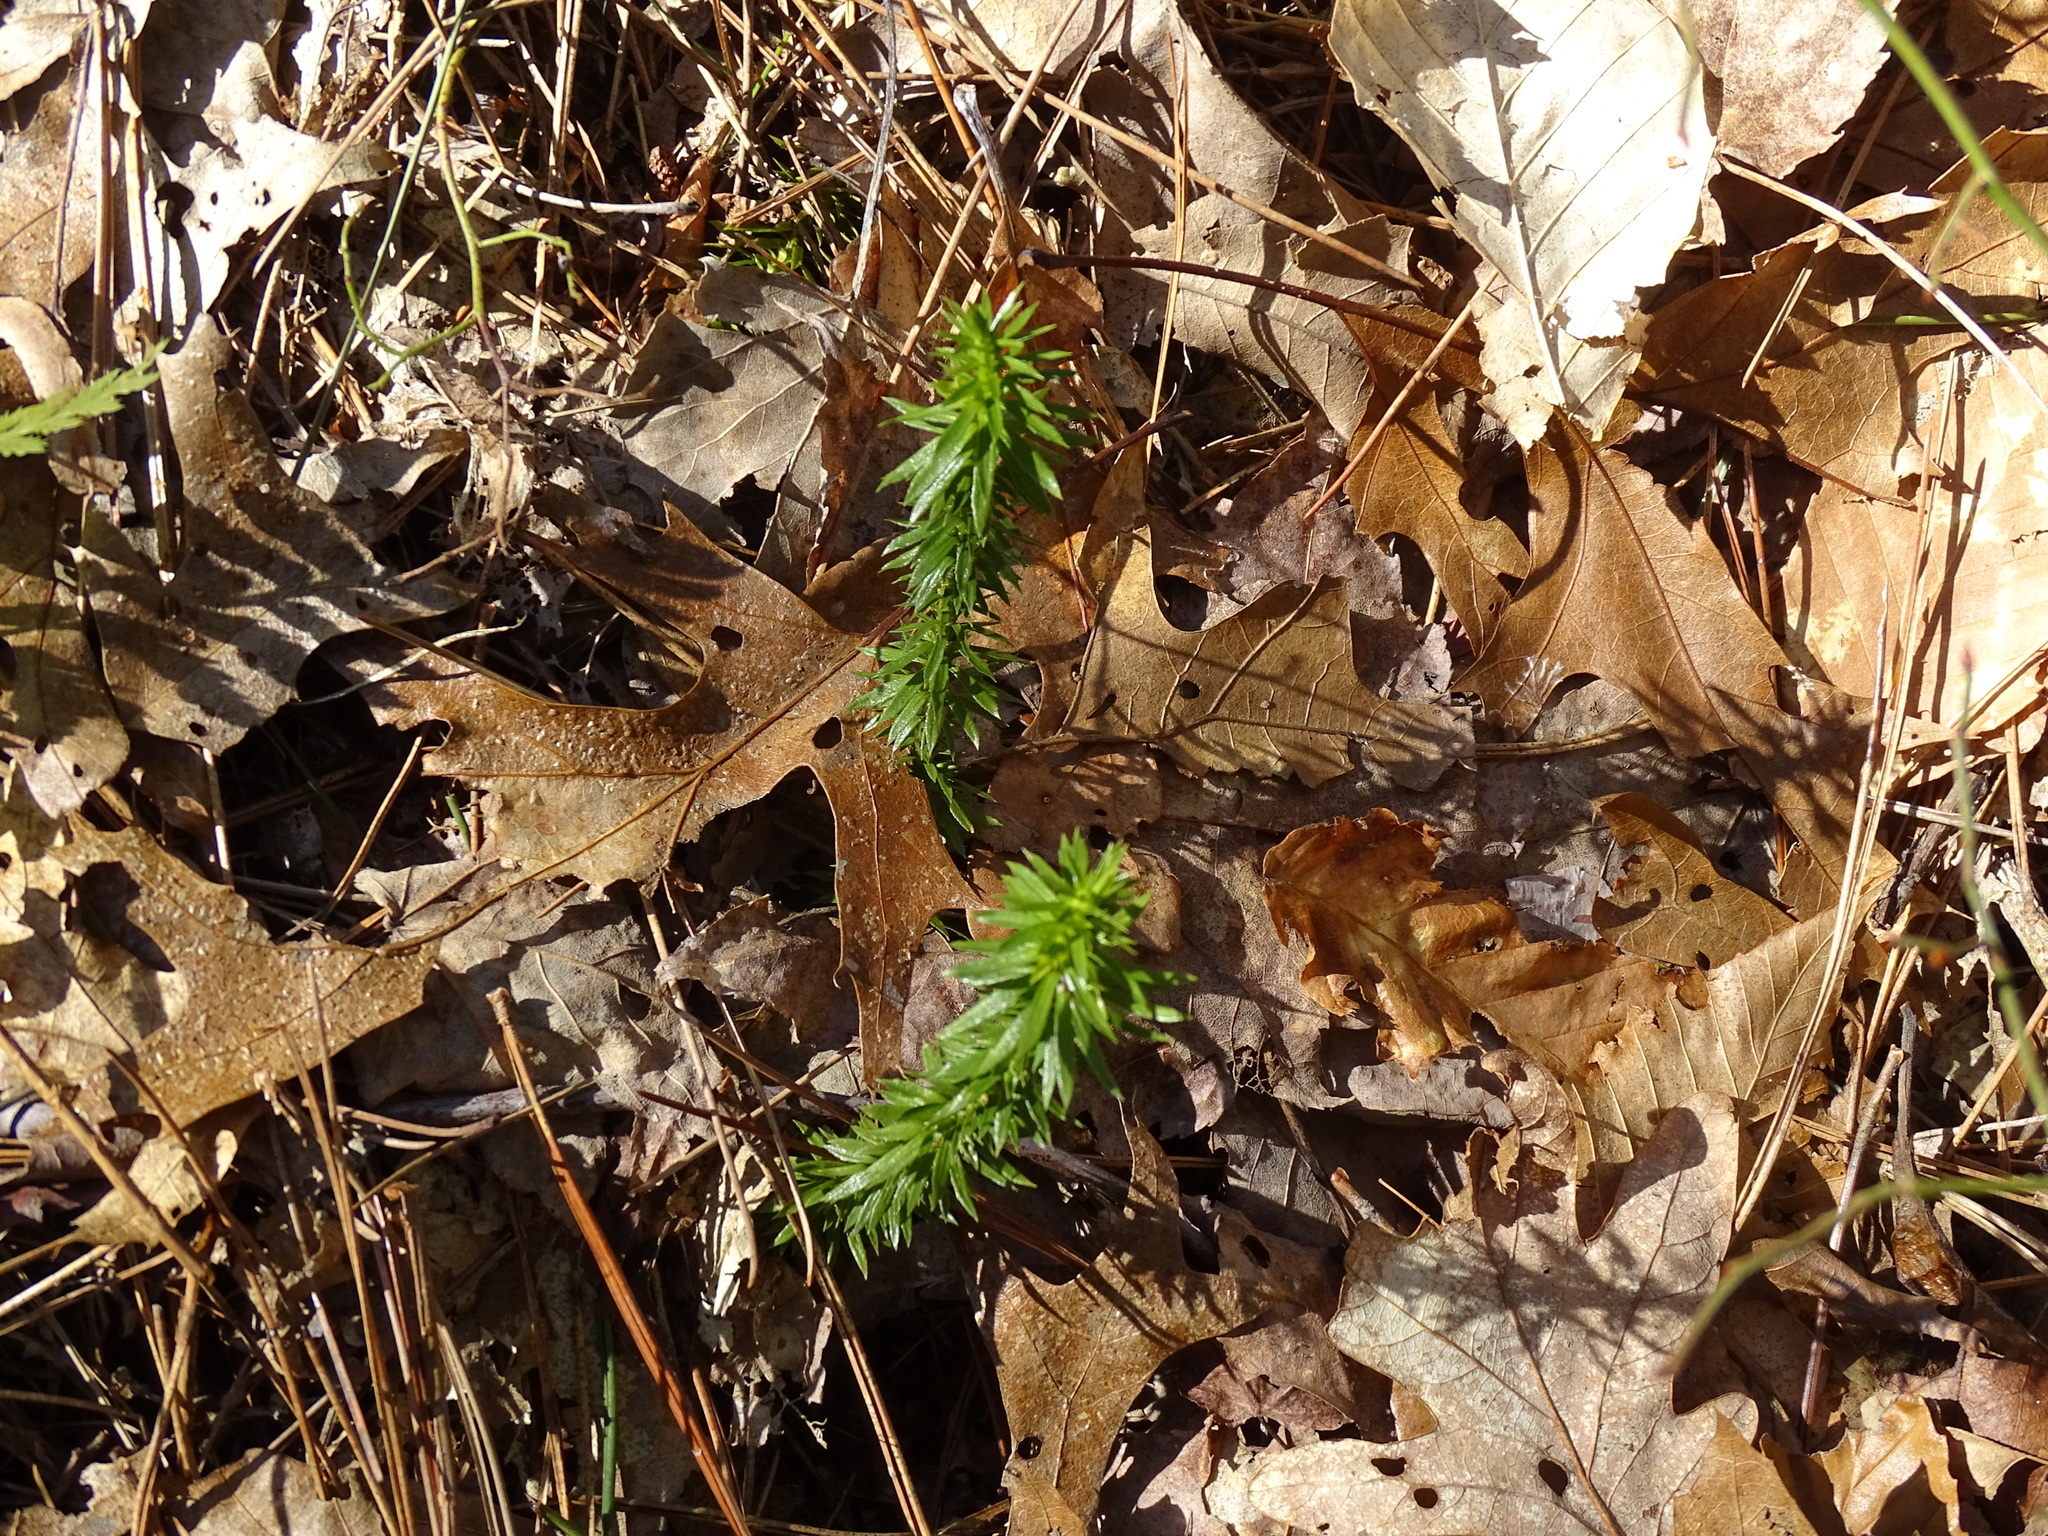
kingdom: Plantae
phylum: Tracheophyta
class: Lycopodiopsida
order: Lycopodiales
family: Lycopodiaceae
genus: Huperzia
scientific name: Huperzia lucidula
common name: Shining clubmoss
